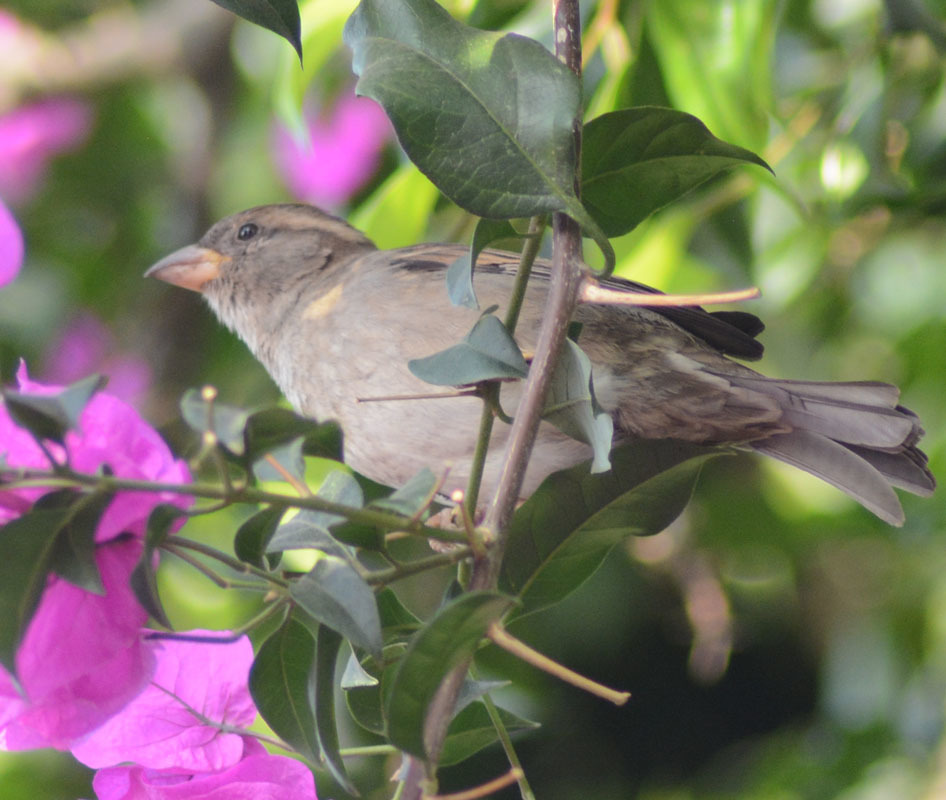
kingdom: Animalia
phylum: Chordata
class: Aves
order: Passeriformes
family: Passeridae
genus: Passer
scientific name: Passer domesticus
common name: House sparrow
